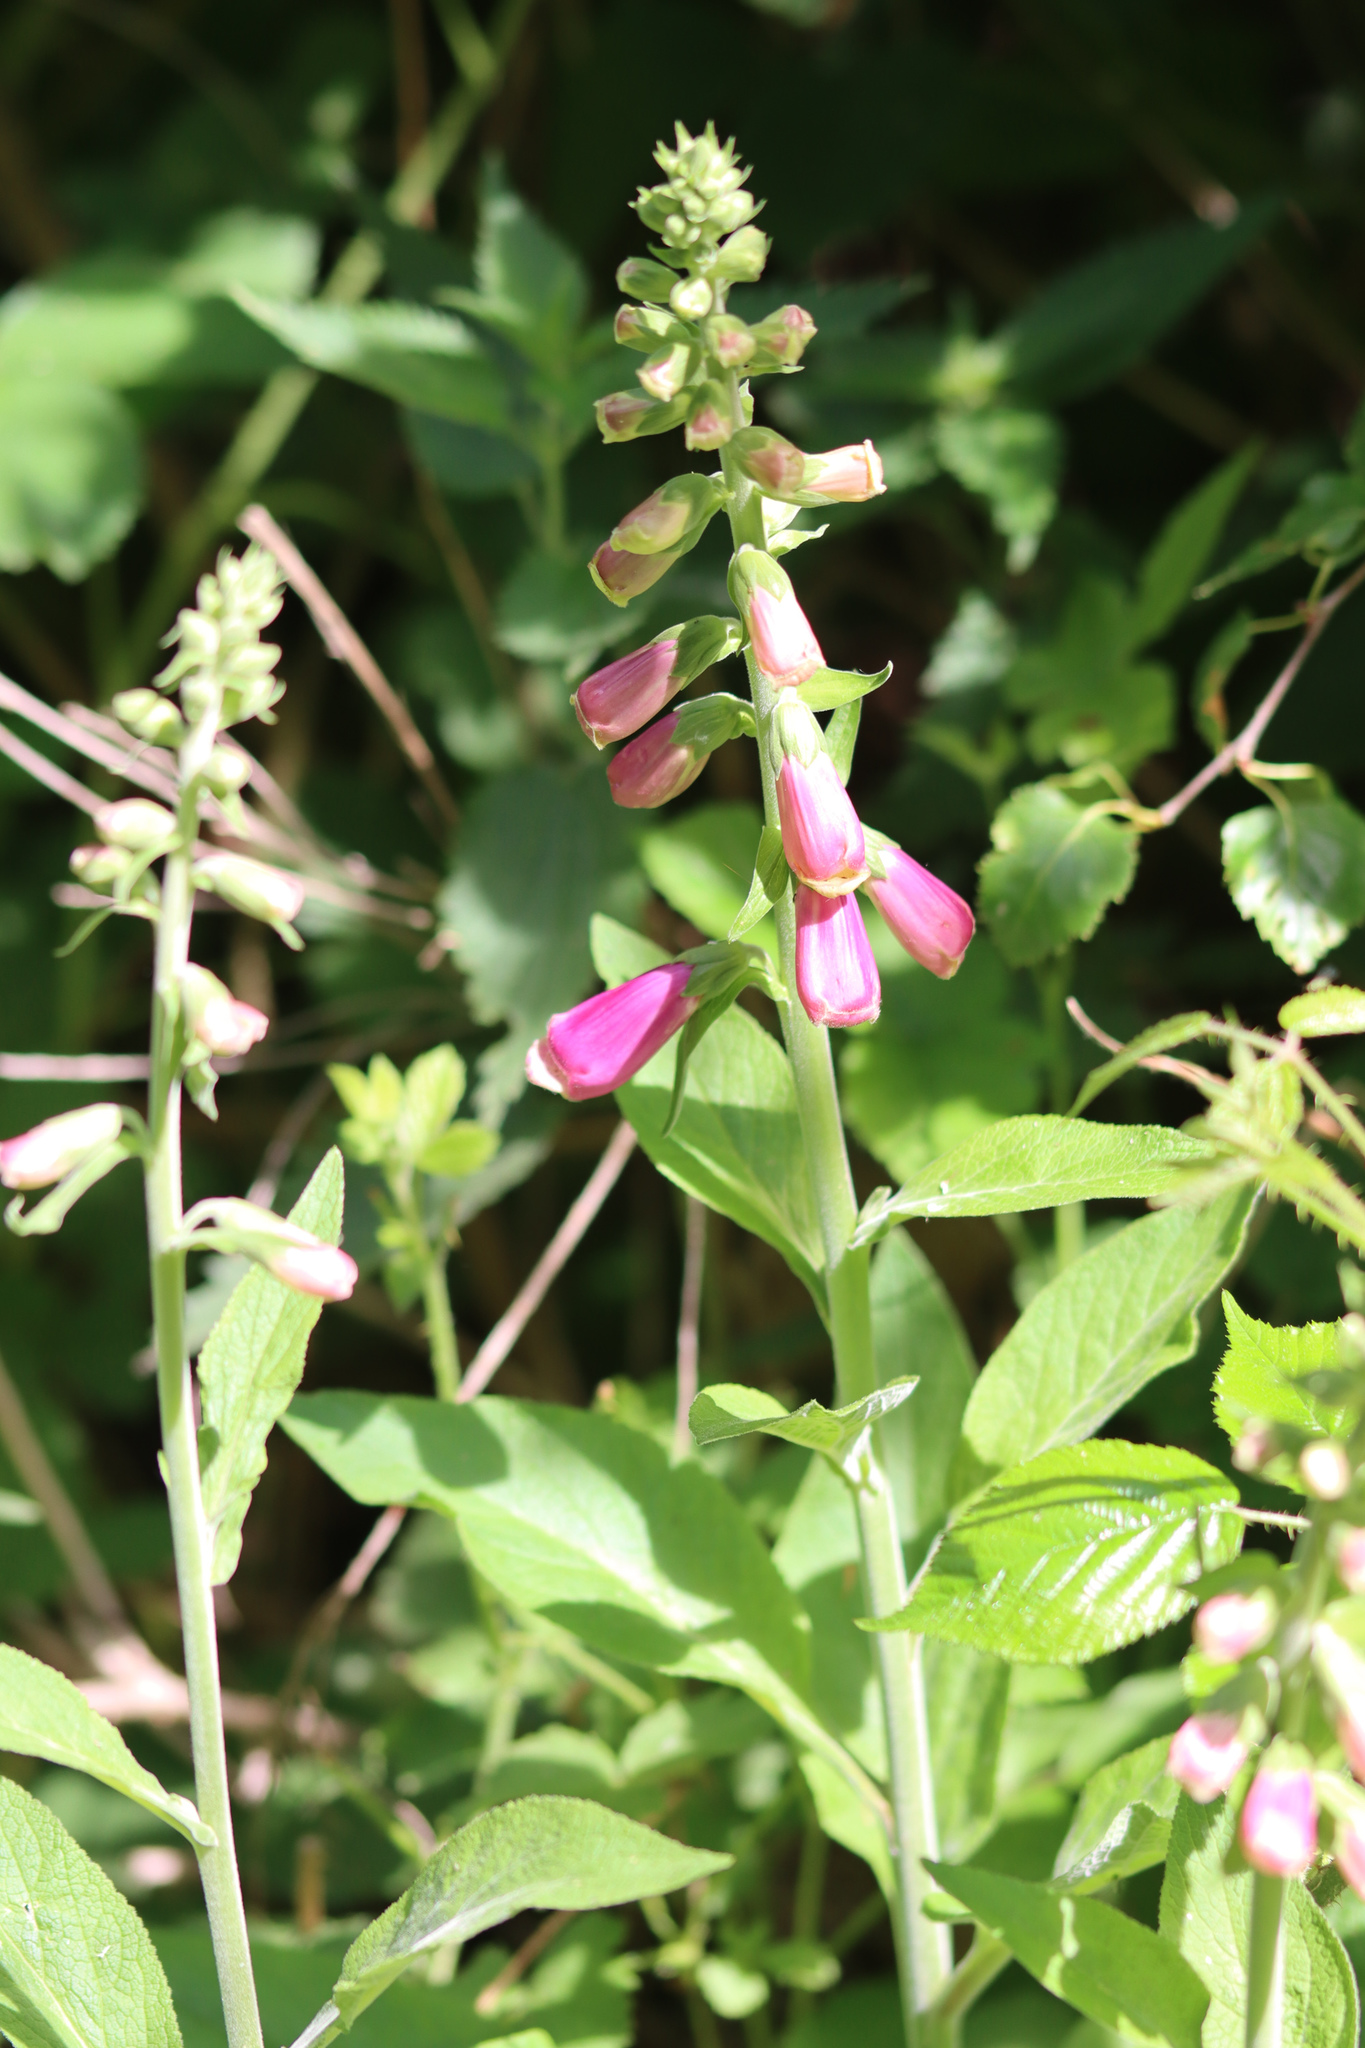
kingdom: Plantae
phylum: Tracheophyta
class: Magnoliopsida
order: Lamiales
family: Plantaginaceae
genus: Digitalis
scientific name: Digitalis purpurea
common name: Foxglove
